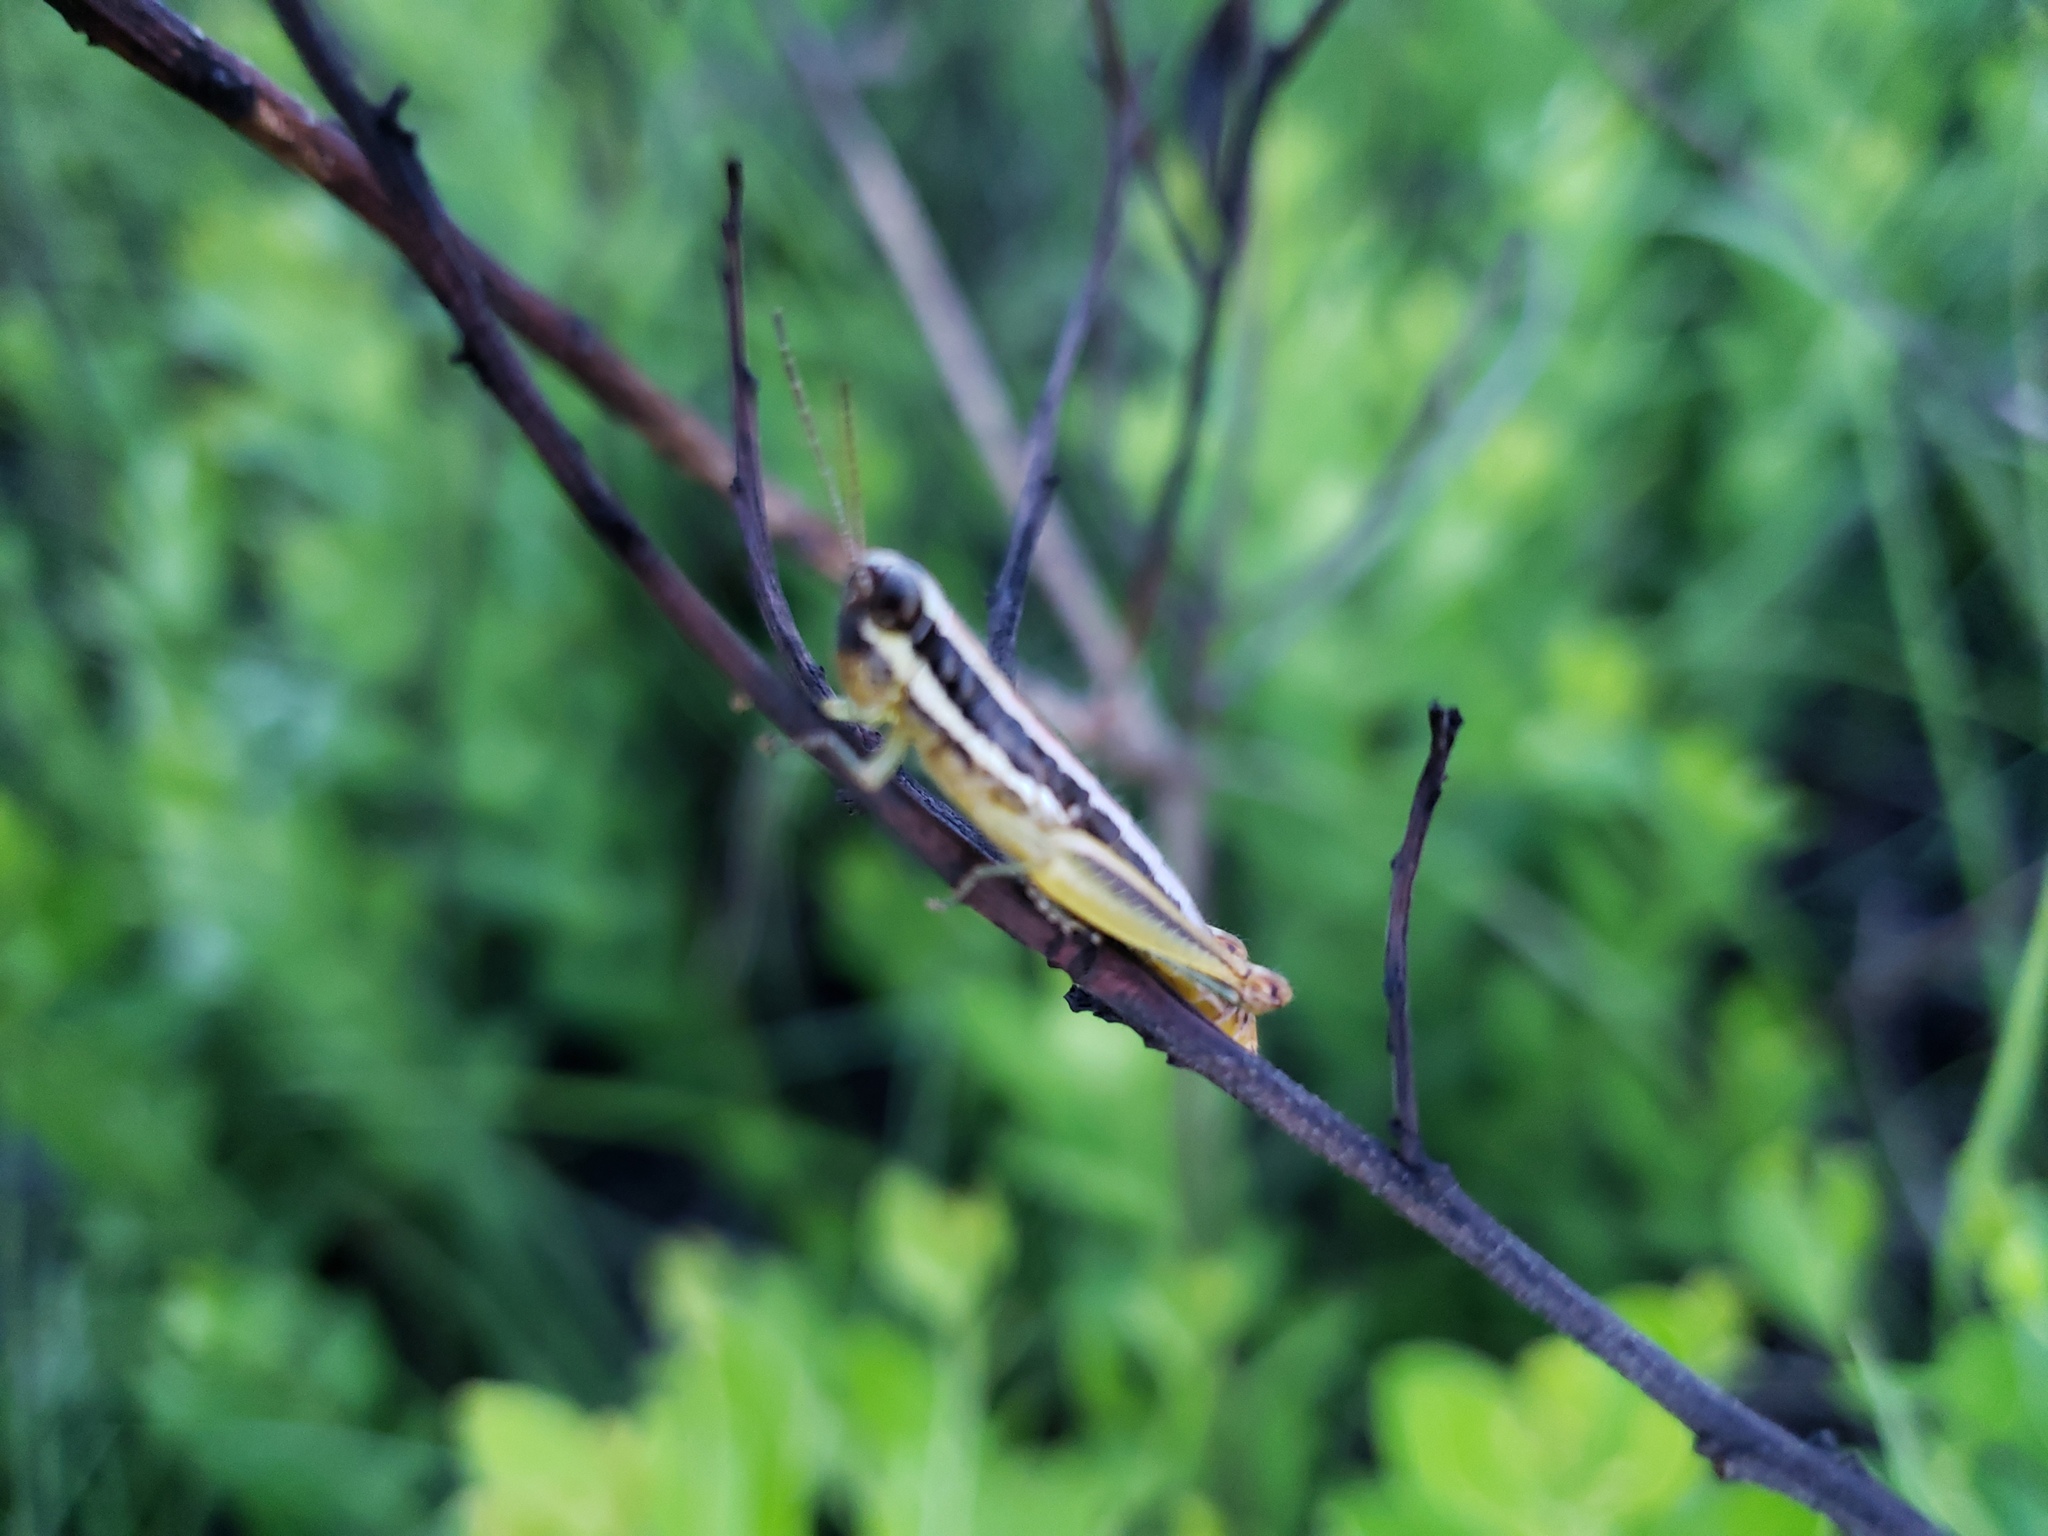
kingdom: Animalia
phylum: Arthropoda
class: Insecta
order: Orthoptera
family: Acrididae
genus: Gymnoscirtetes
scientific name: Gymnoscirtetes pusillus
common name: Little wingless grasshopper
